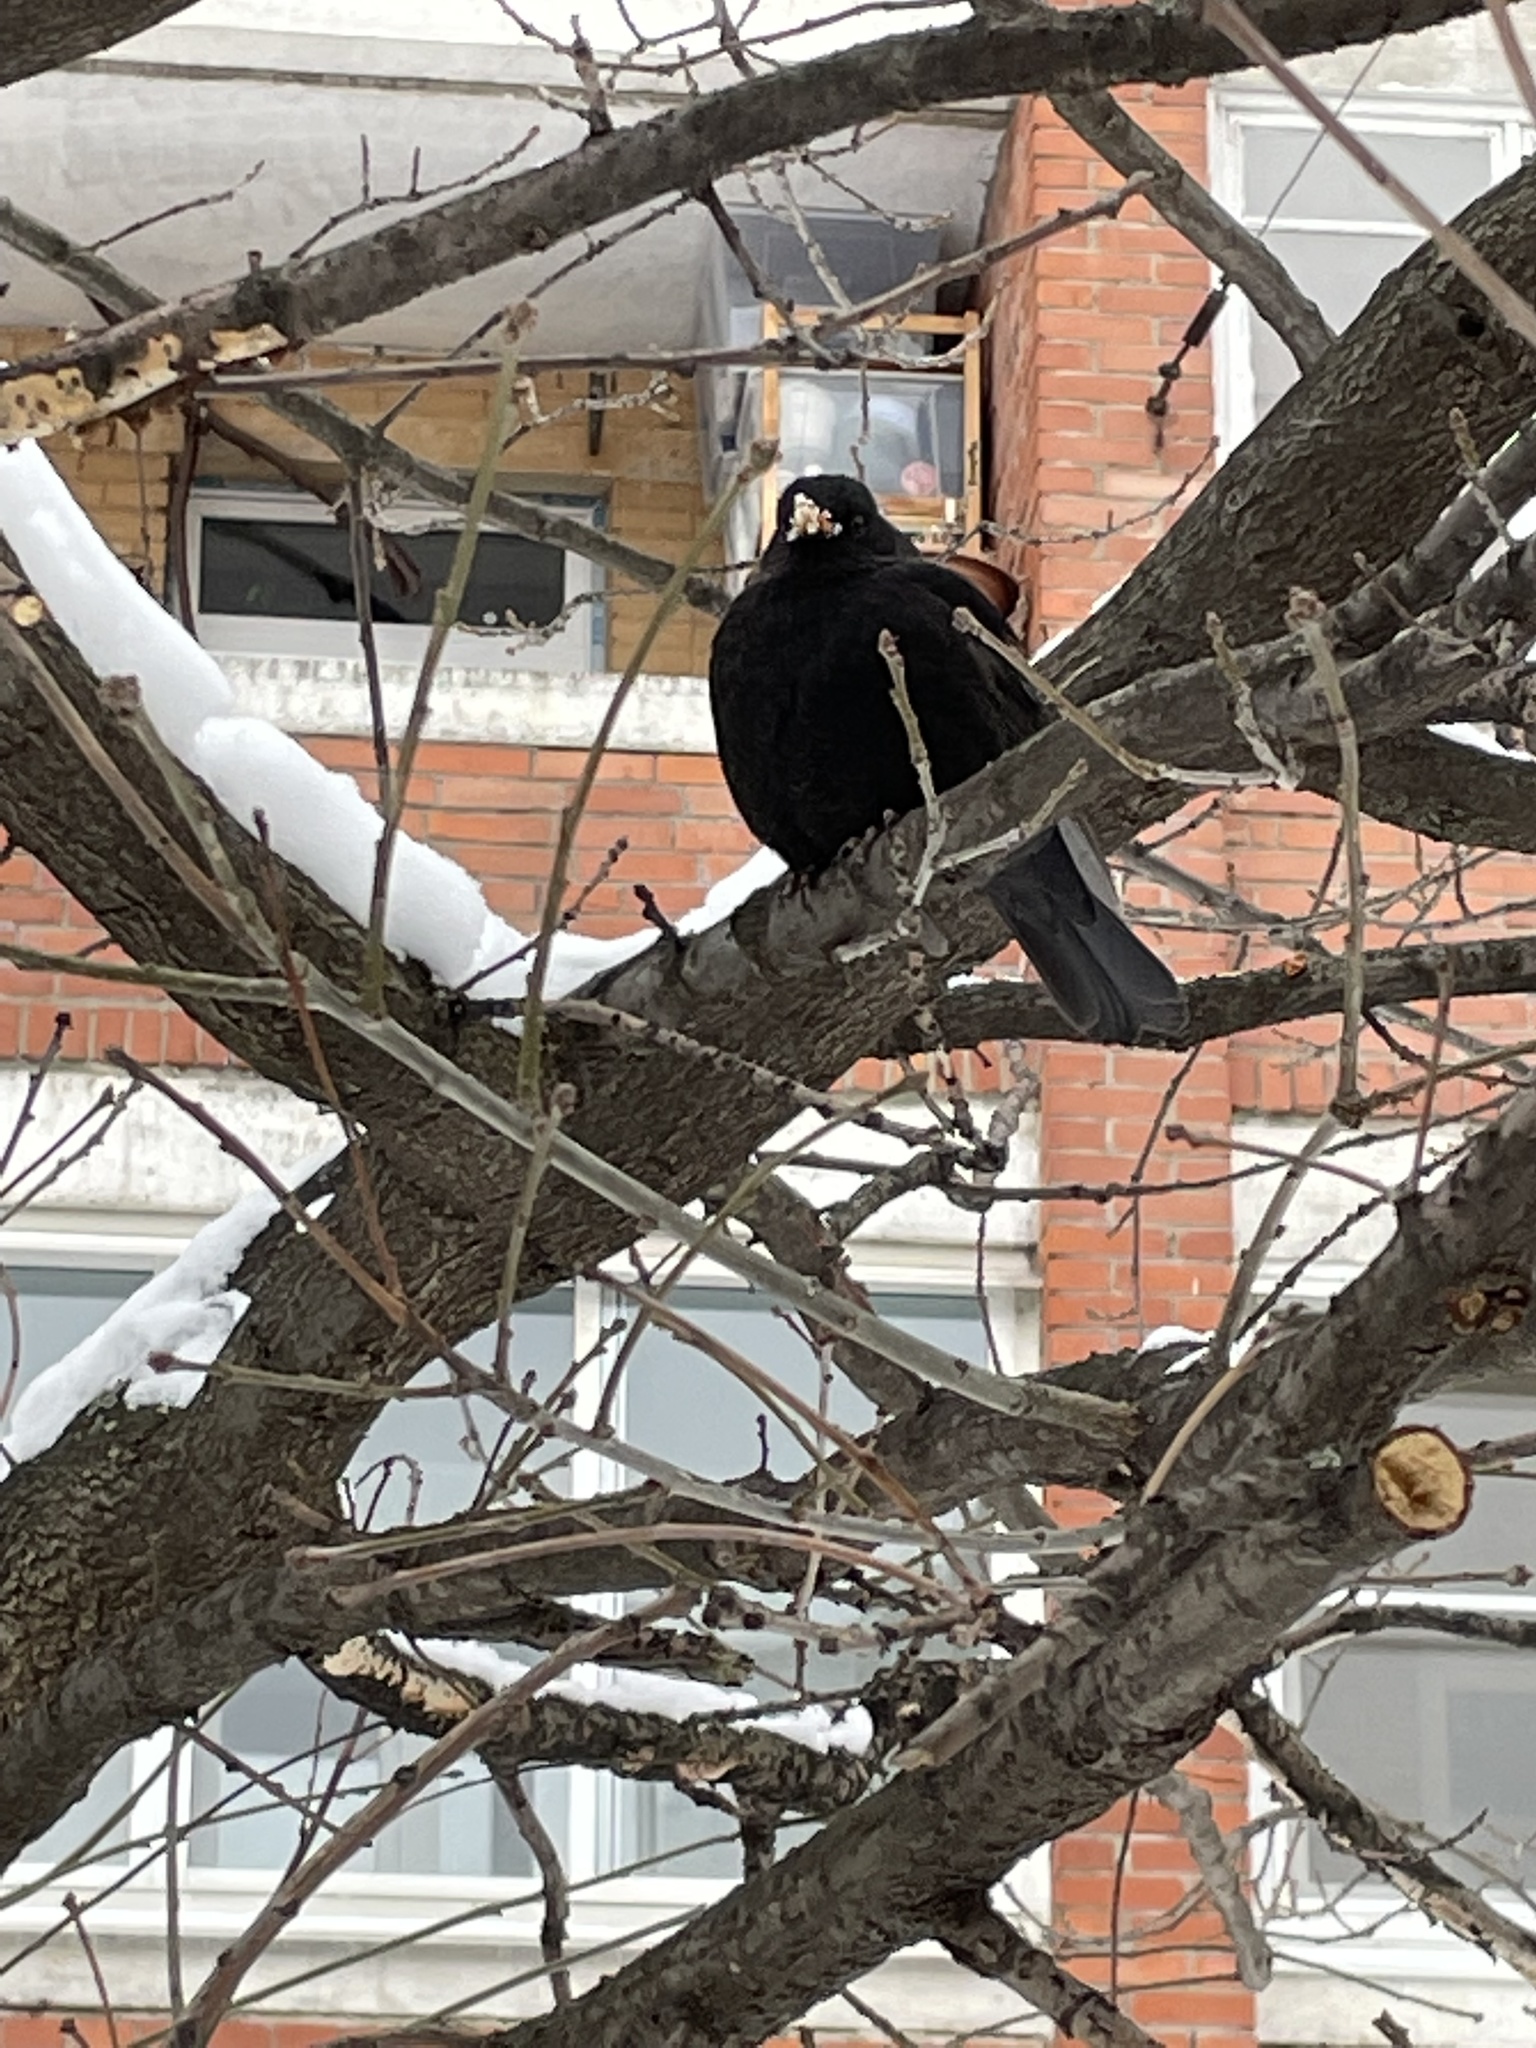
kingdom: Animalia
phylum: Chordata
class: Aves
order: Passeriformes
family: Turdidae
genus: Turdus
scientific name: Turdus merula
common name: Common blackbird
